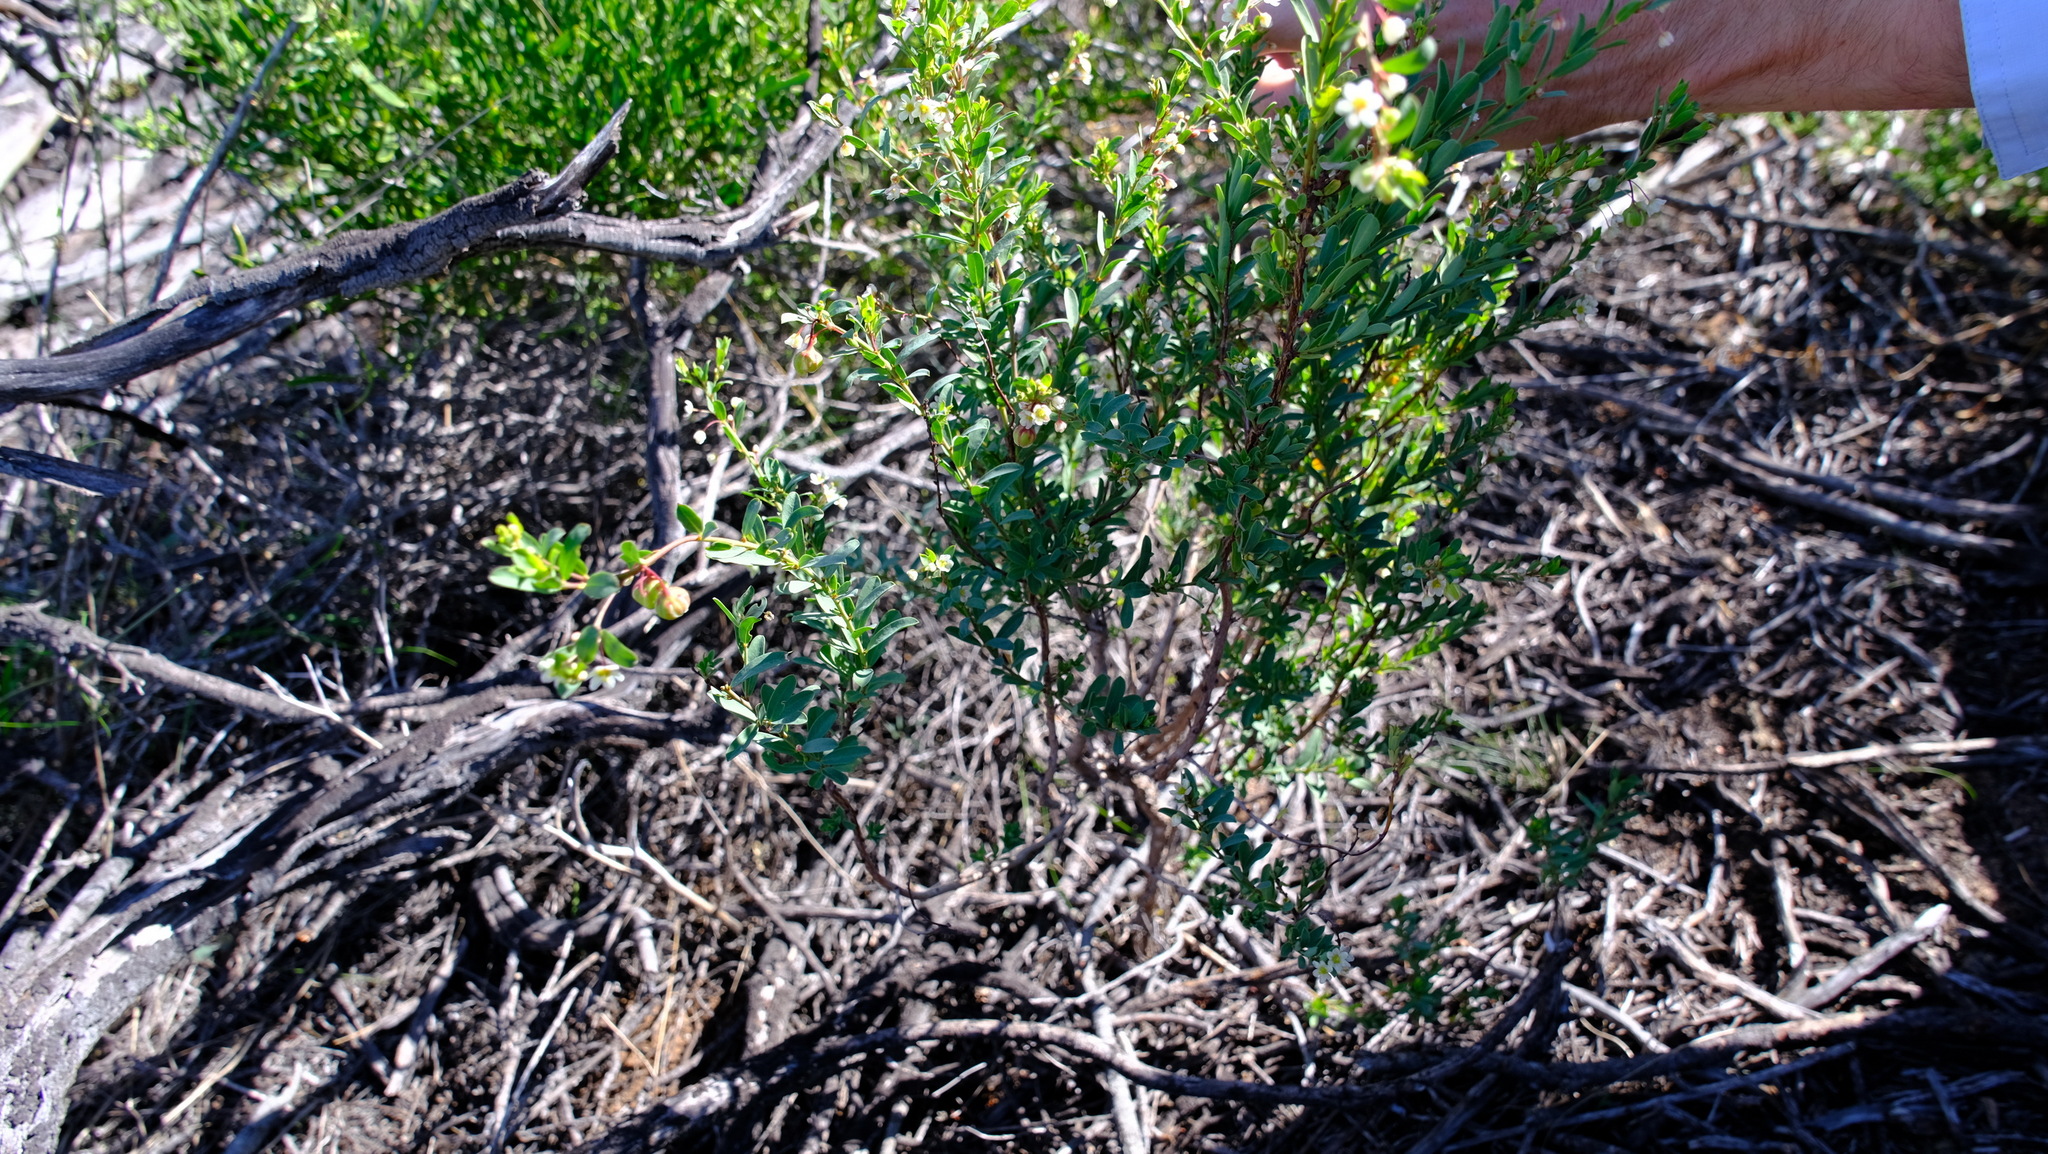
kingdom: Plantae
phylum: Tracheophyta
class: Magnoliopsida
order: Malpighiales
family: Phyllanthaceae
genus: Phyllanthus
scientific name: Phyllanthus calycinus
